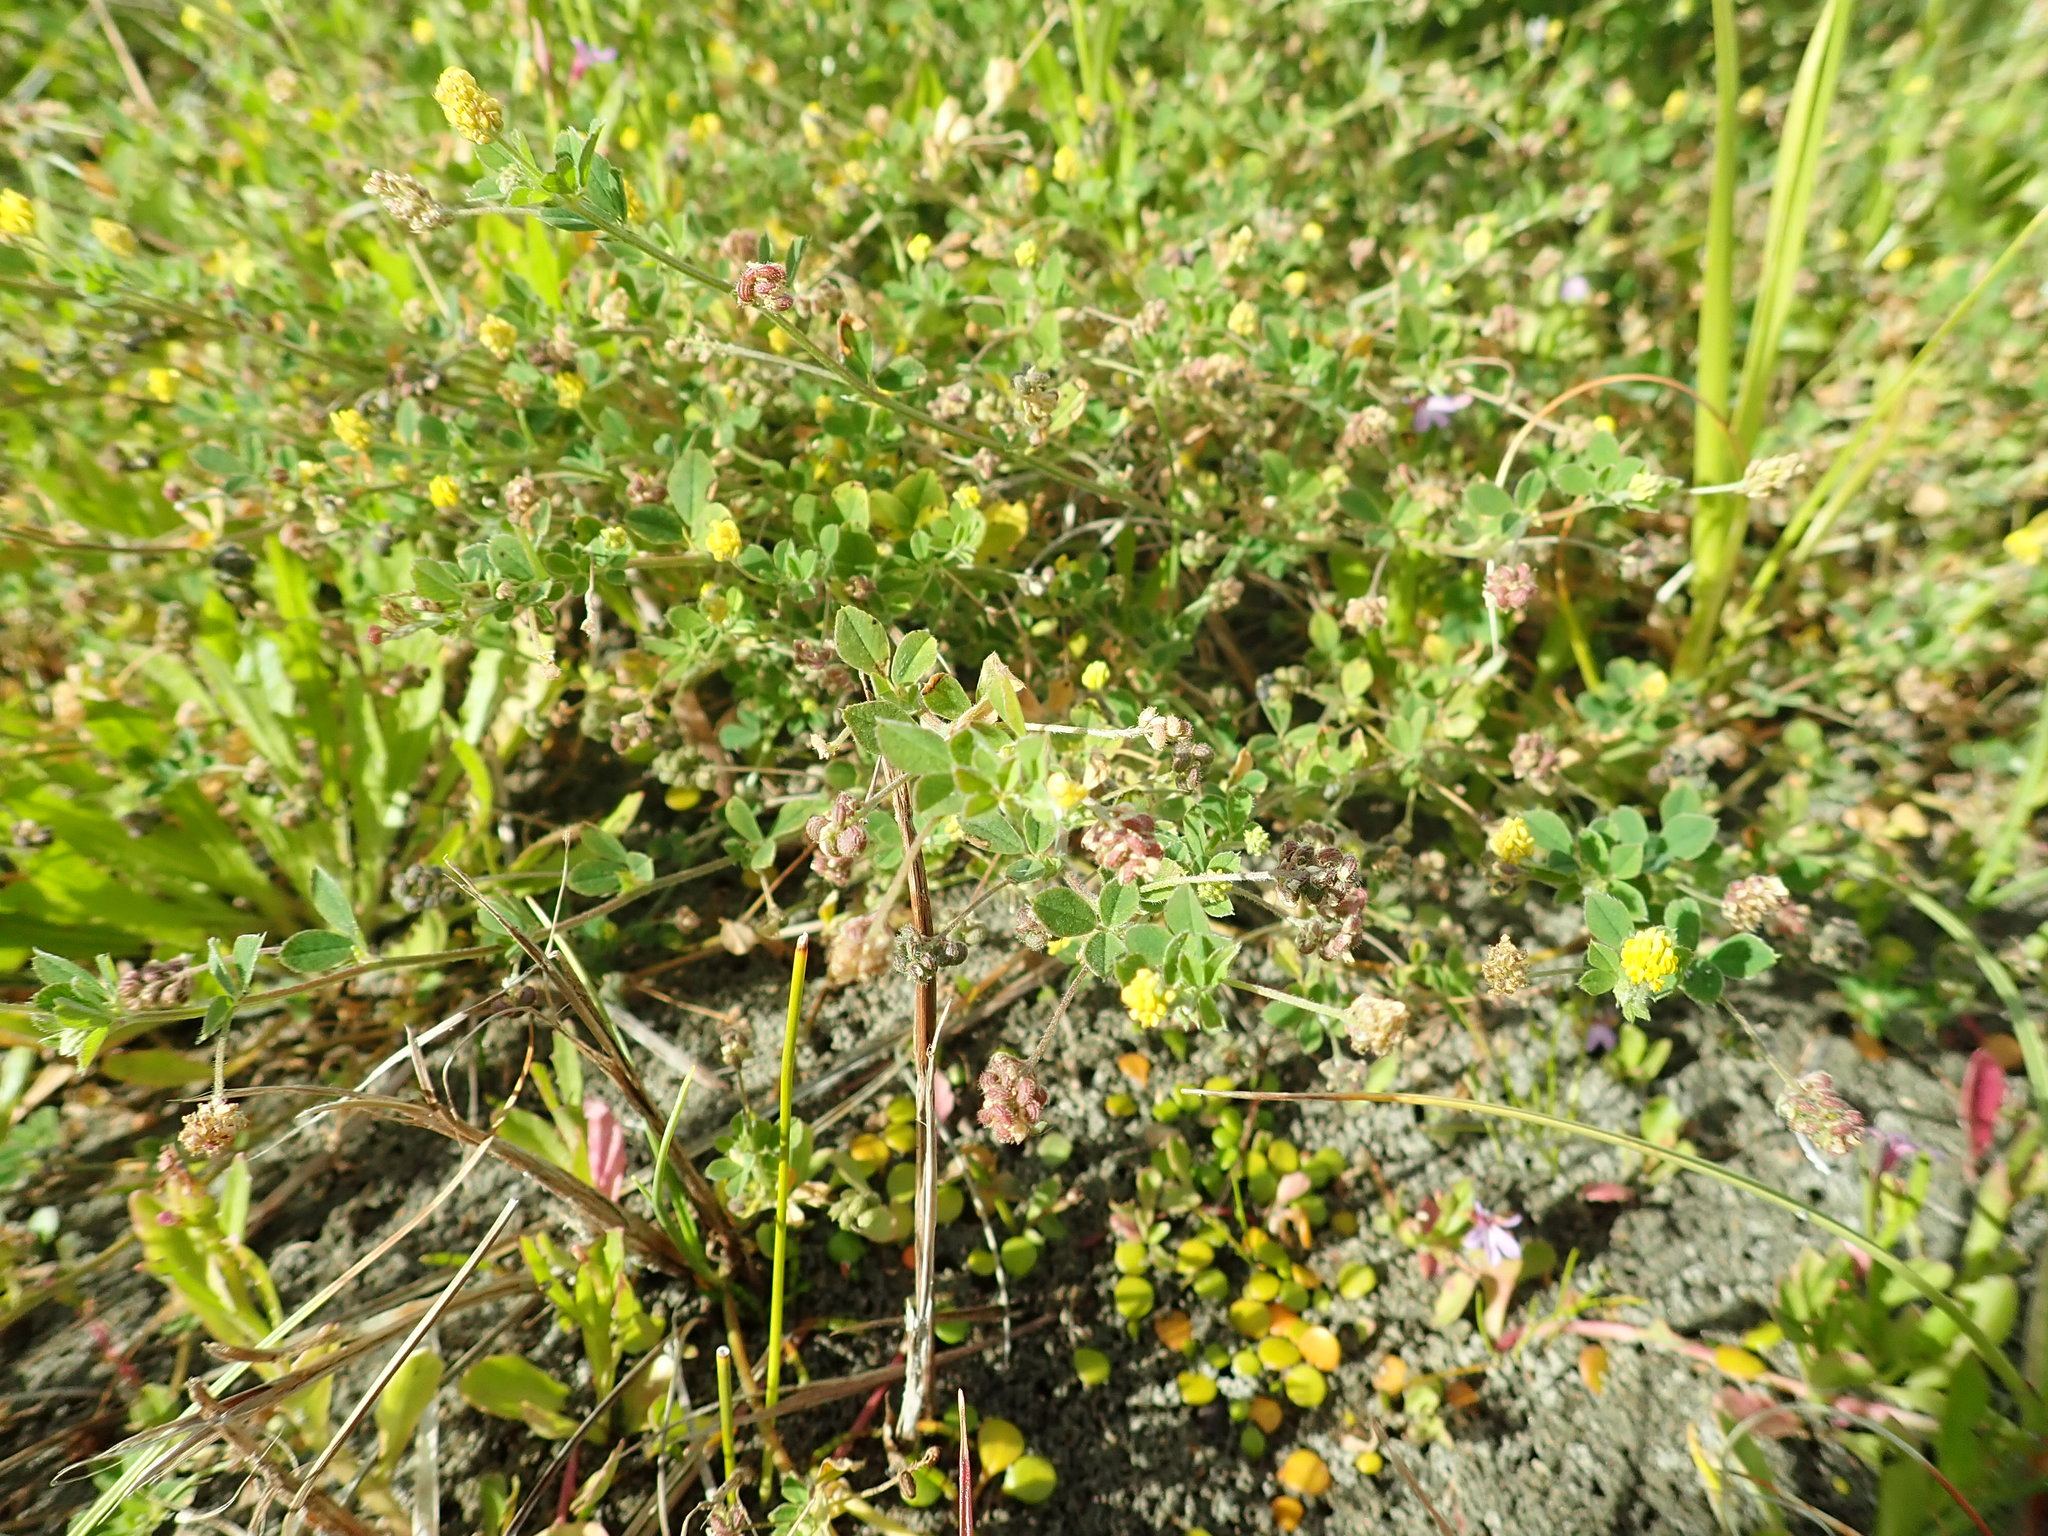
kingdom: Plantae
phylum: Tracheophyta
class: Magnoliopsida
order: Fabales
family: Fabaceae
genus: Medicago
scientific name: Medicago lupulina
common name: Black medick
